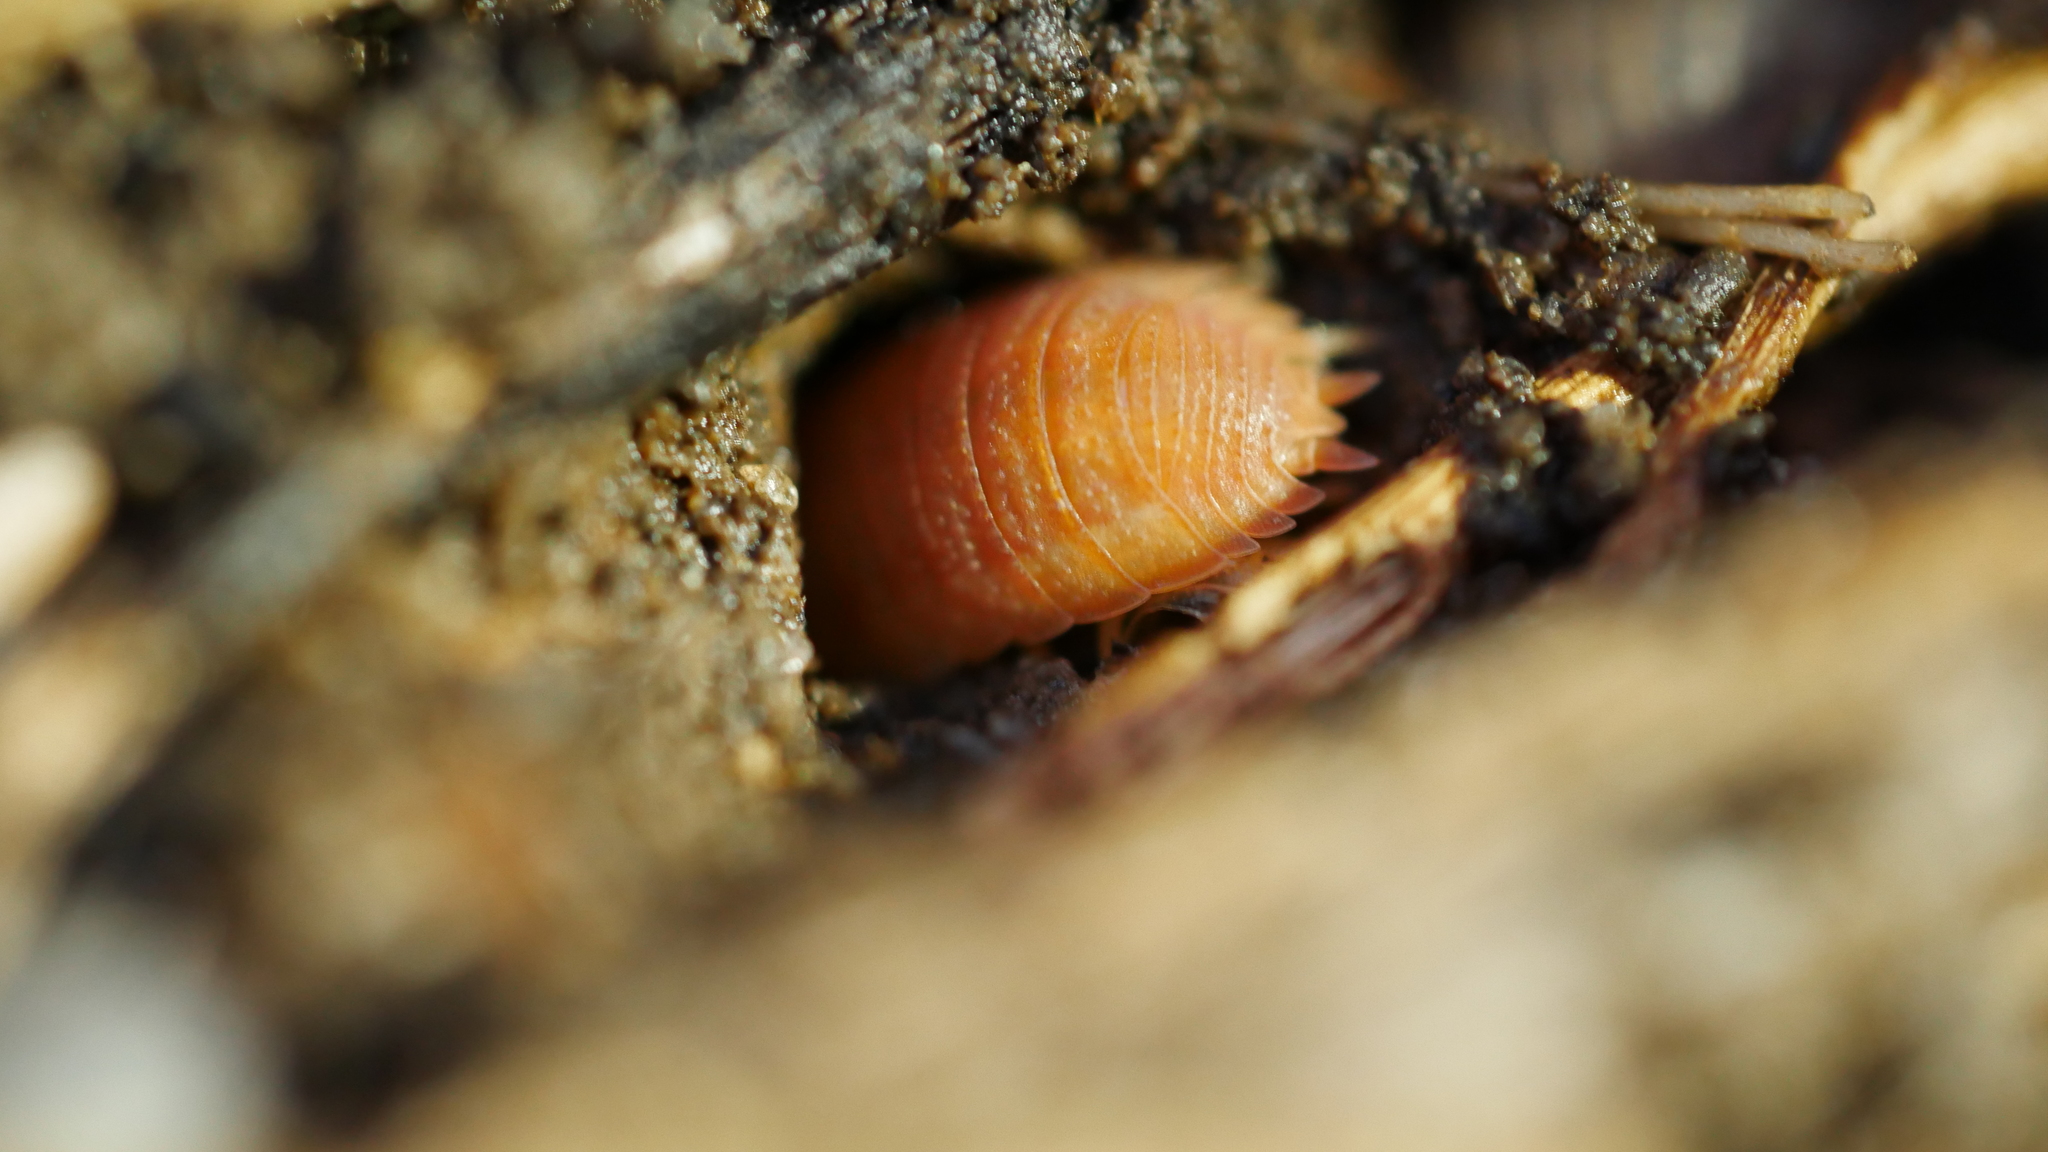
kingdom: Animalia
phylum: Arthropoda
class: Malacostraca
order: Isopoda
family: Porcellionidae
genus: Porcellio
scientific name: Porcellio scaber
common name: Common rough woodlouse
